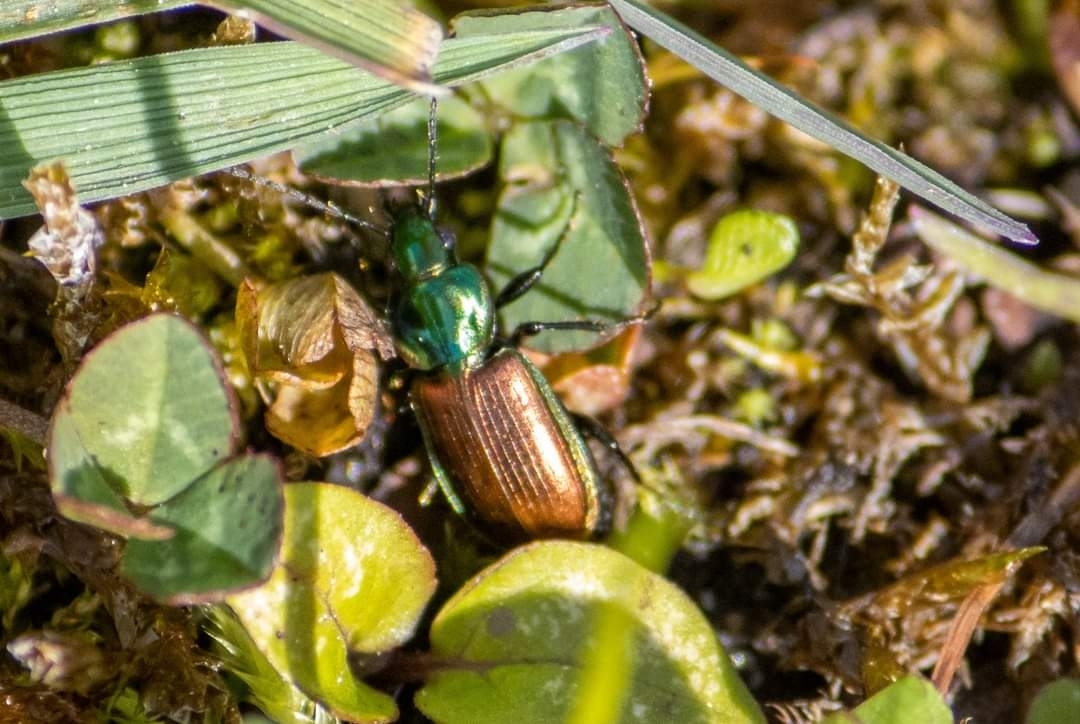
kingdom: Animalia
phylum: Arthropoda
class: Insecta
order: Coleoptera
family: Carabidae
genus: Agonum
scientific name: Agonum sexpunctatum
